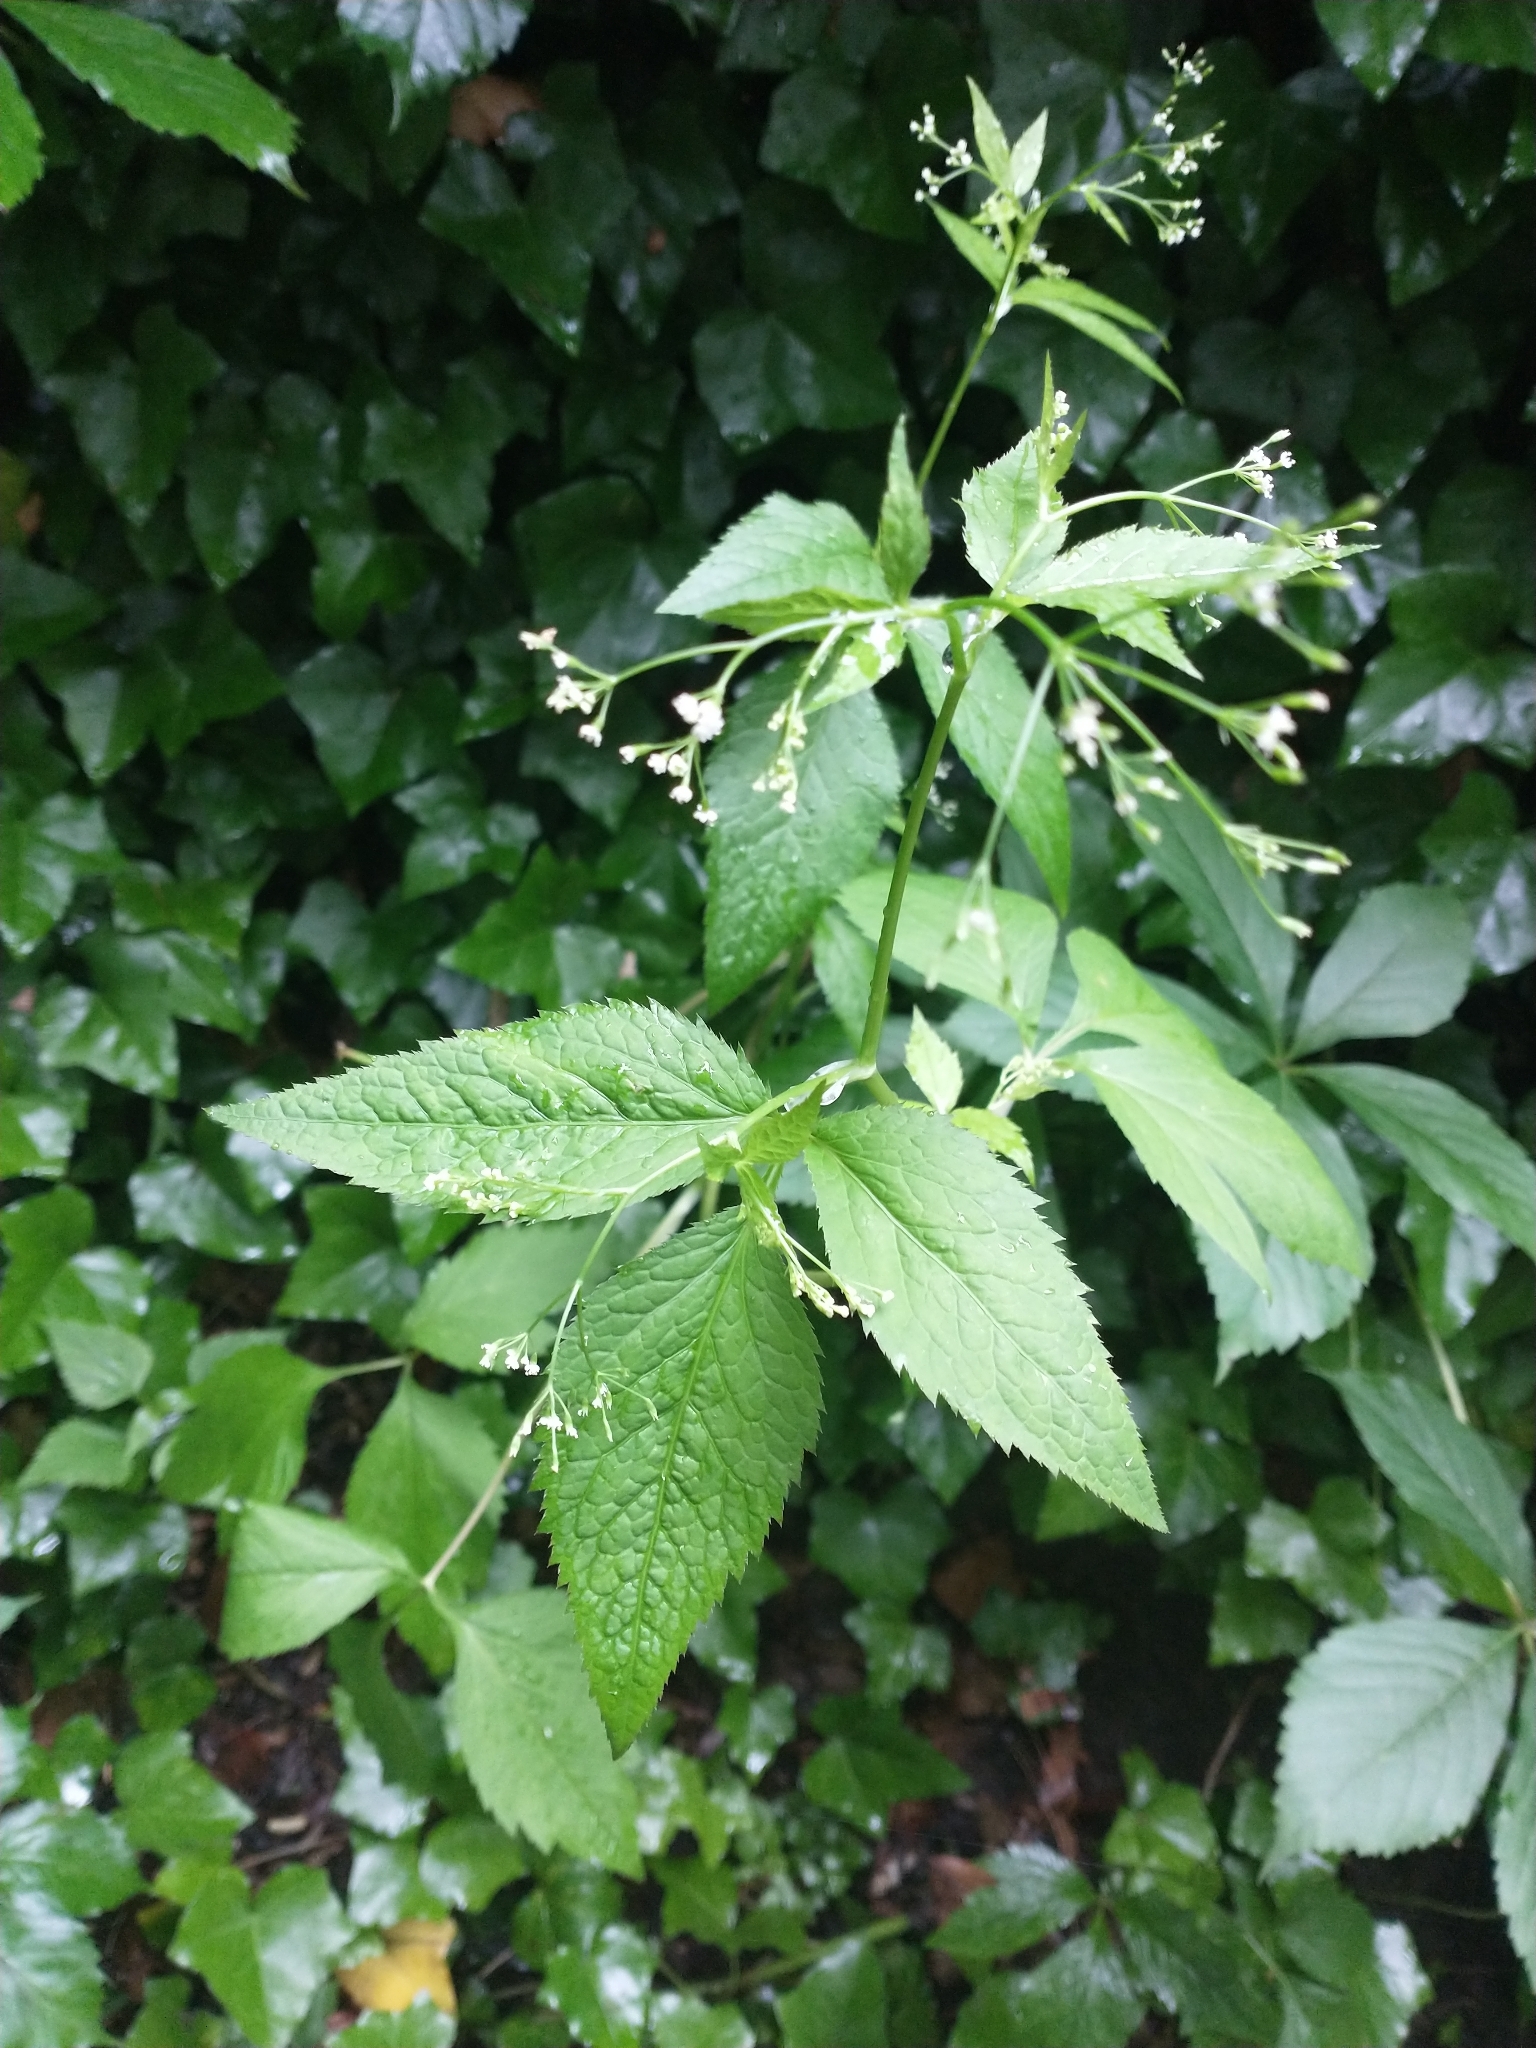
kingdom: Plantae
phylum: Tracheophyta
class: Magnoliopsida
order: Apiales
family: Apiaceae
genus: Cryptotaenia
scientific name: Cryptotaenia canadensis
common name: Honewort
